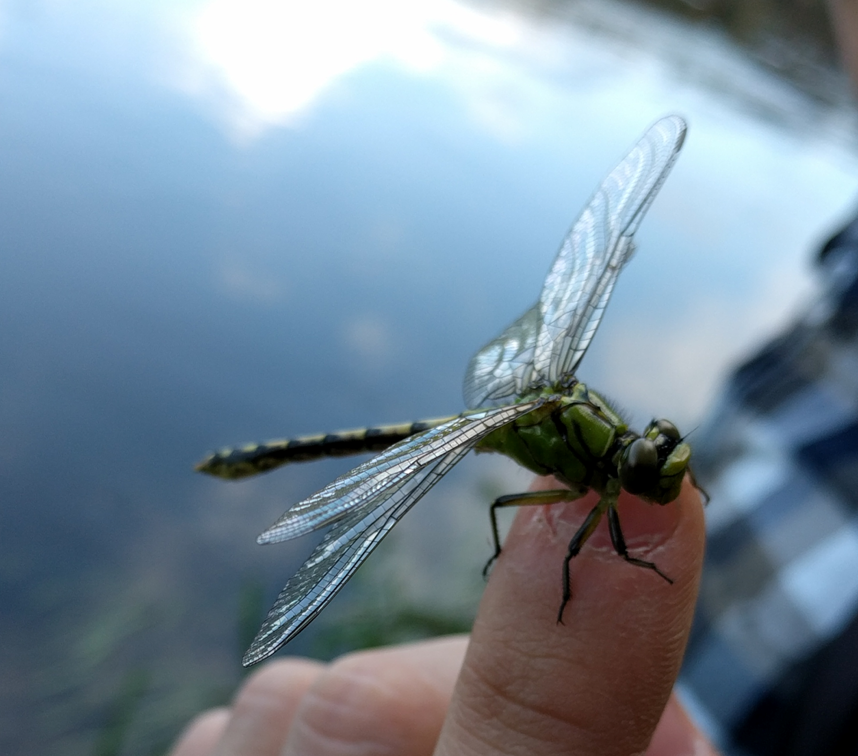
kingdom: Animalia
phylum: Arthropoda
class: Insecta
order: Odonata
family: Gomphidae
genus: Ophiogomphus
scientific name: Ophiogomphus cecilia
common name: Green snaketail
